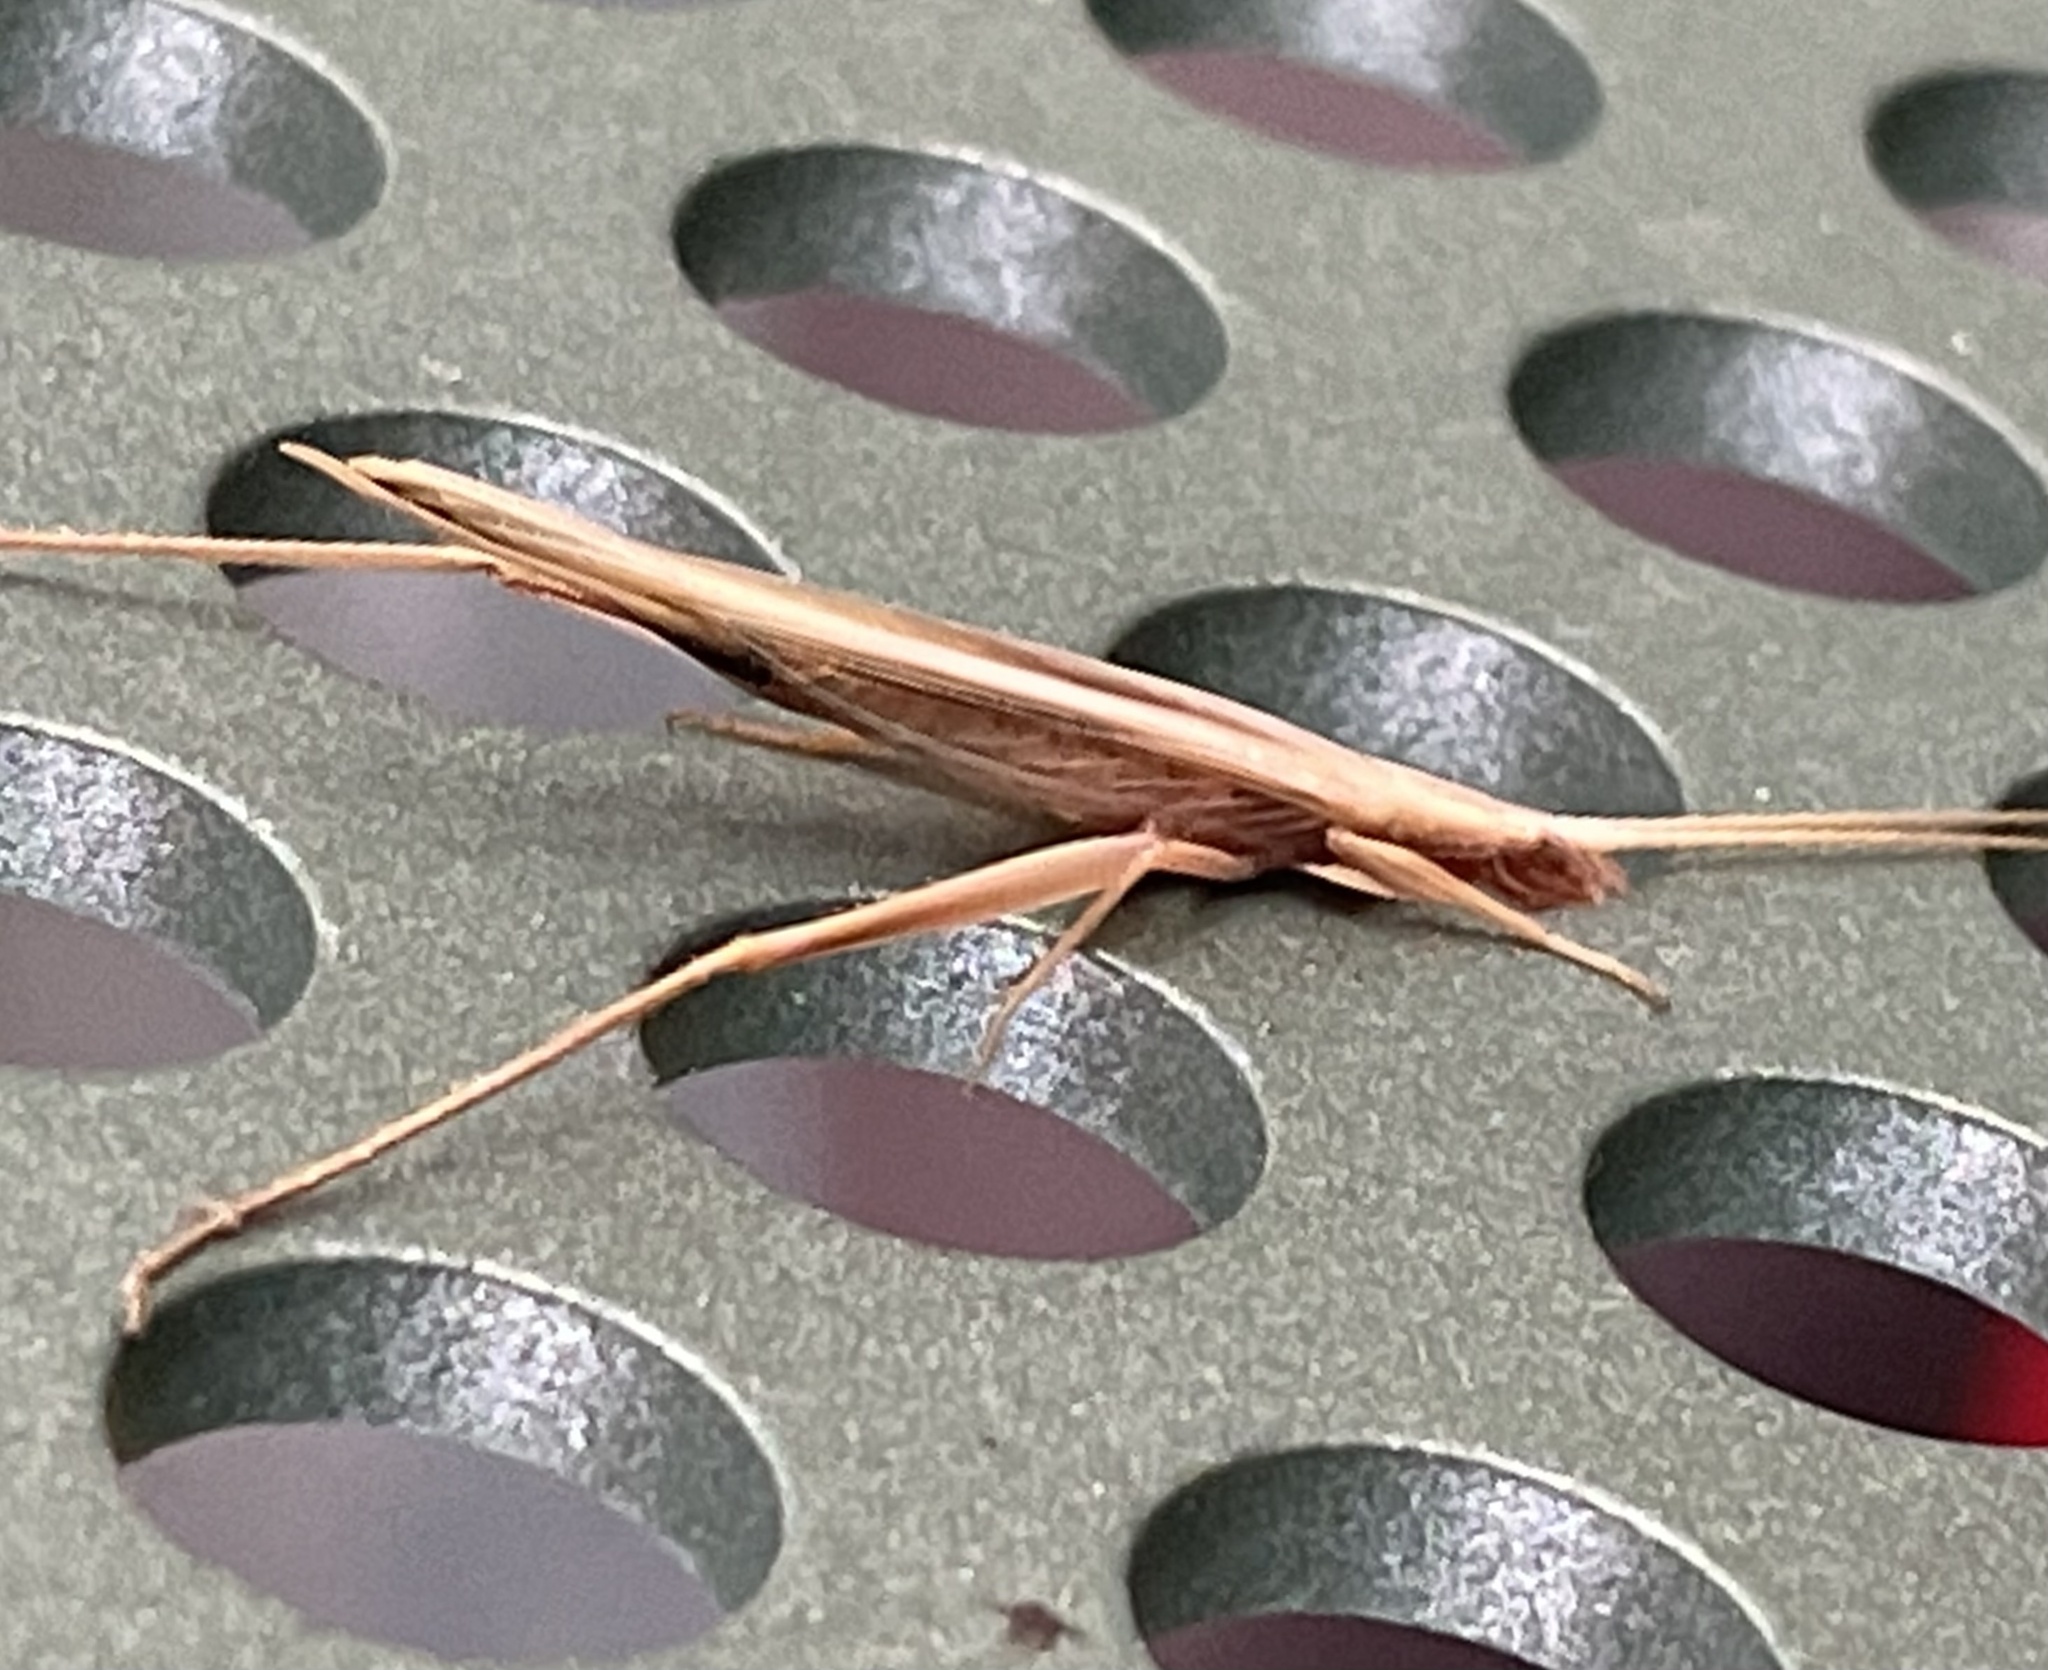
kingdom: Animalia
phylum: Arthropoda
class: Insecta
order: Orthoptera
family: Gryllidae
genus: Oecanthus
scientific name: Oecanthus rufescens
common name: Striped tree cricket
